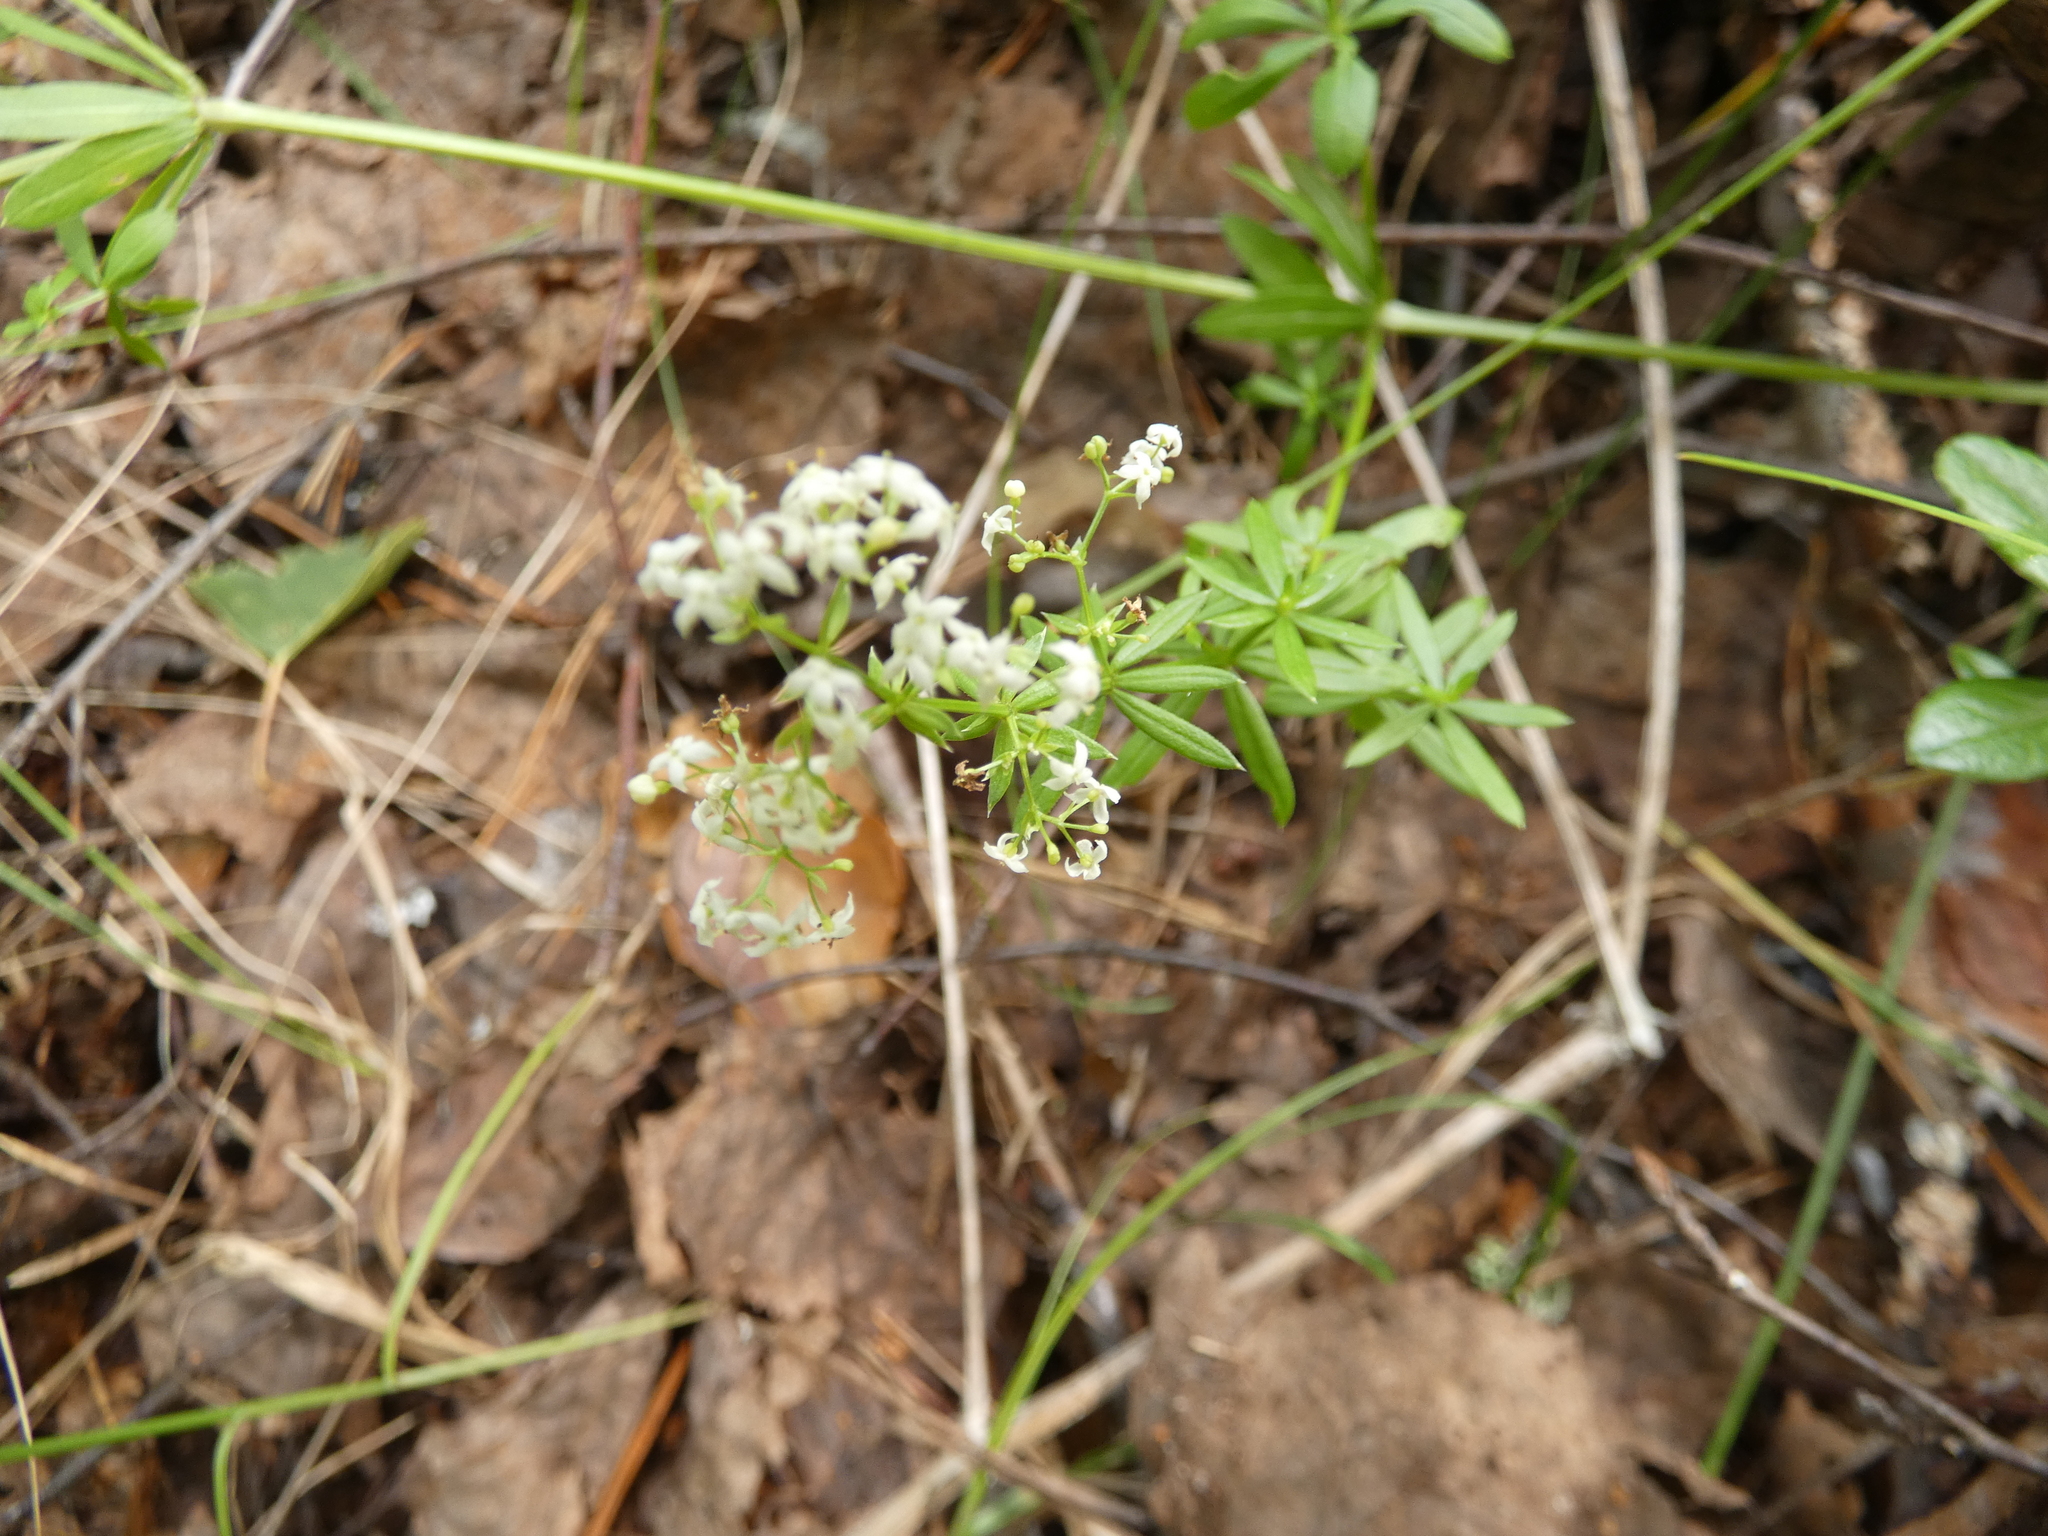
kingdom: Plantae
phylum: Tracheophyta
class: Magnoliopsida
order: Gentianales
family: Rubiaceae
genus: Galium
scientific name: Galium mollugo
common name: Hedge bedstraw
